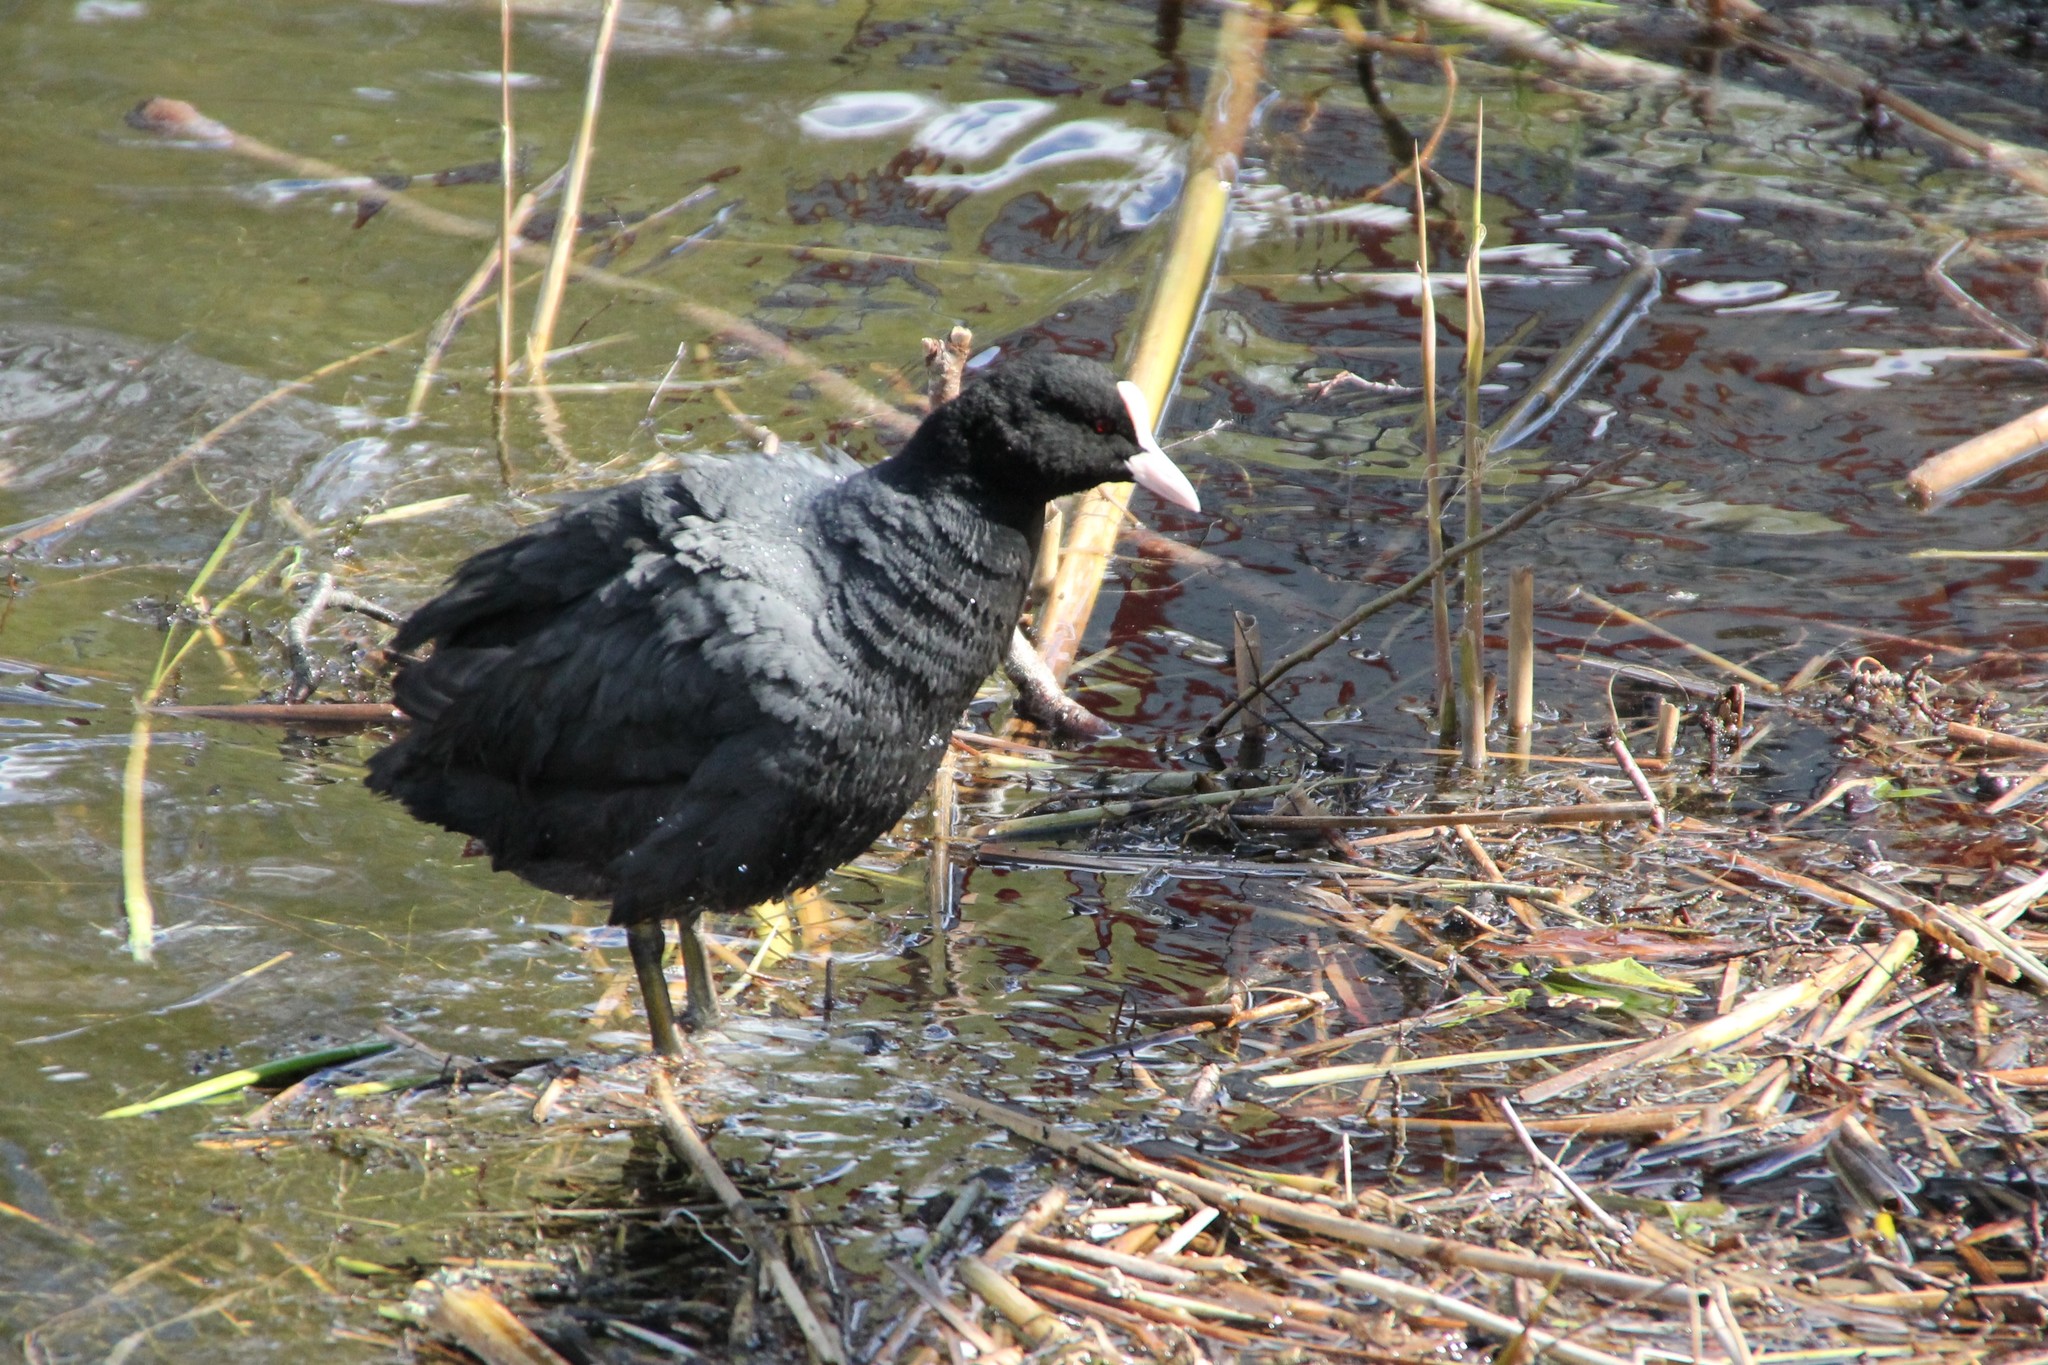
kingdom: Animalia
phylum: Chordata
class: Aves
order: Gruiformes
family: Rallidae
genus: Fulica
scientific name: Fulica atra
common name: Eurasian coot
